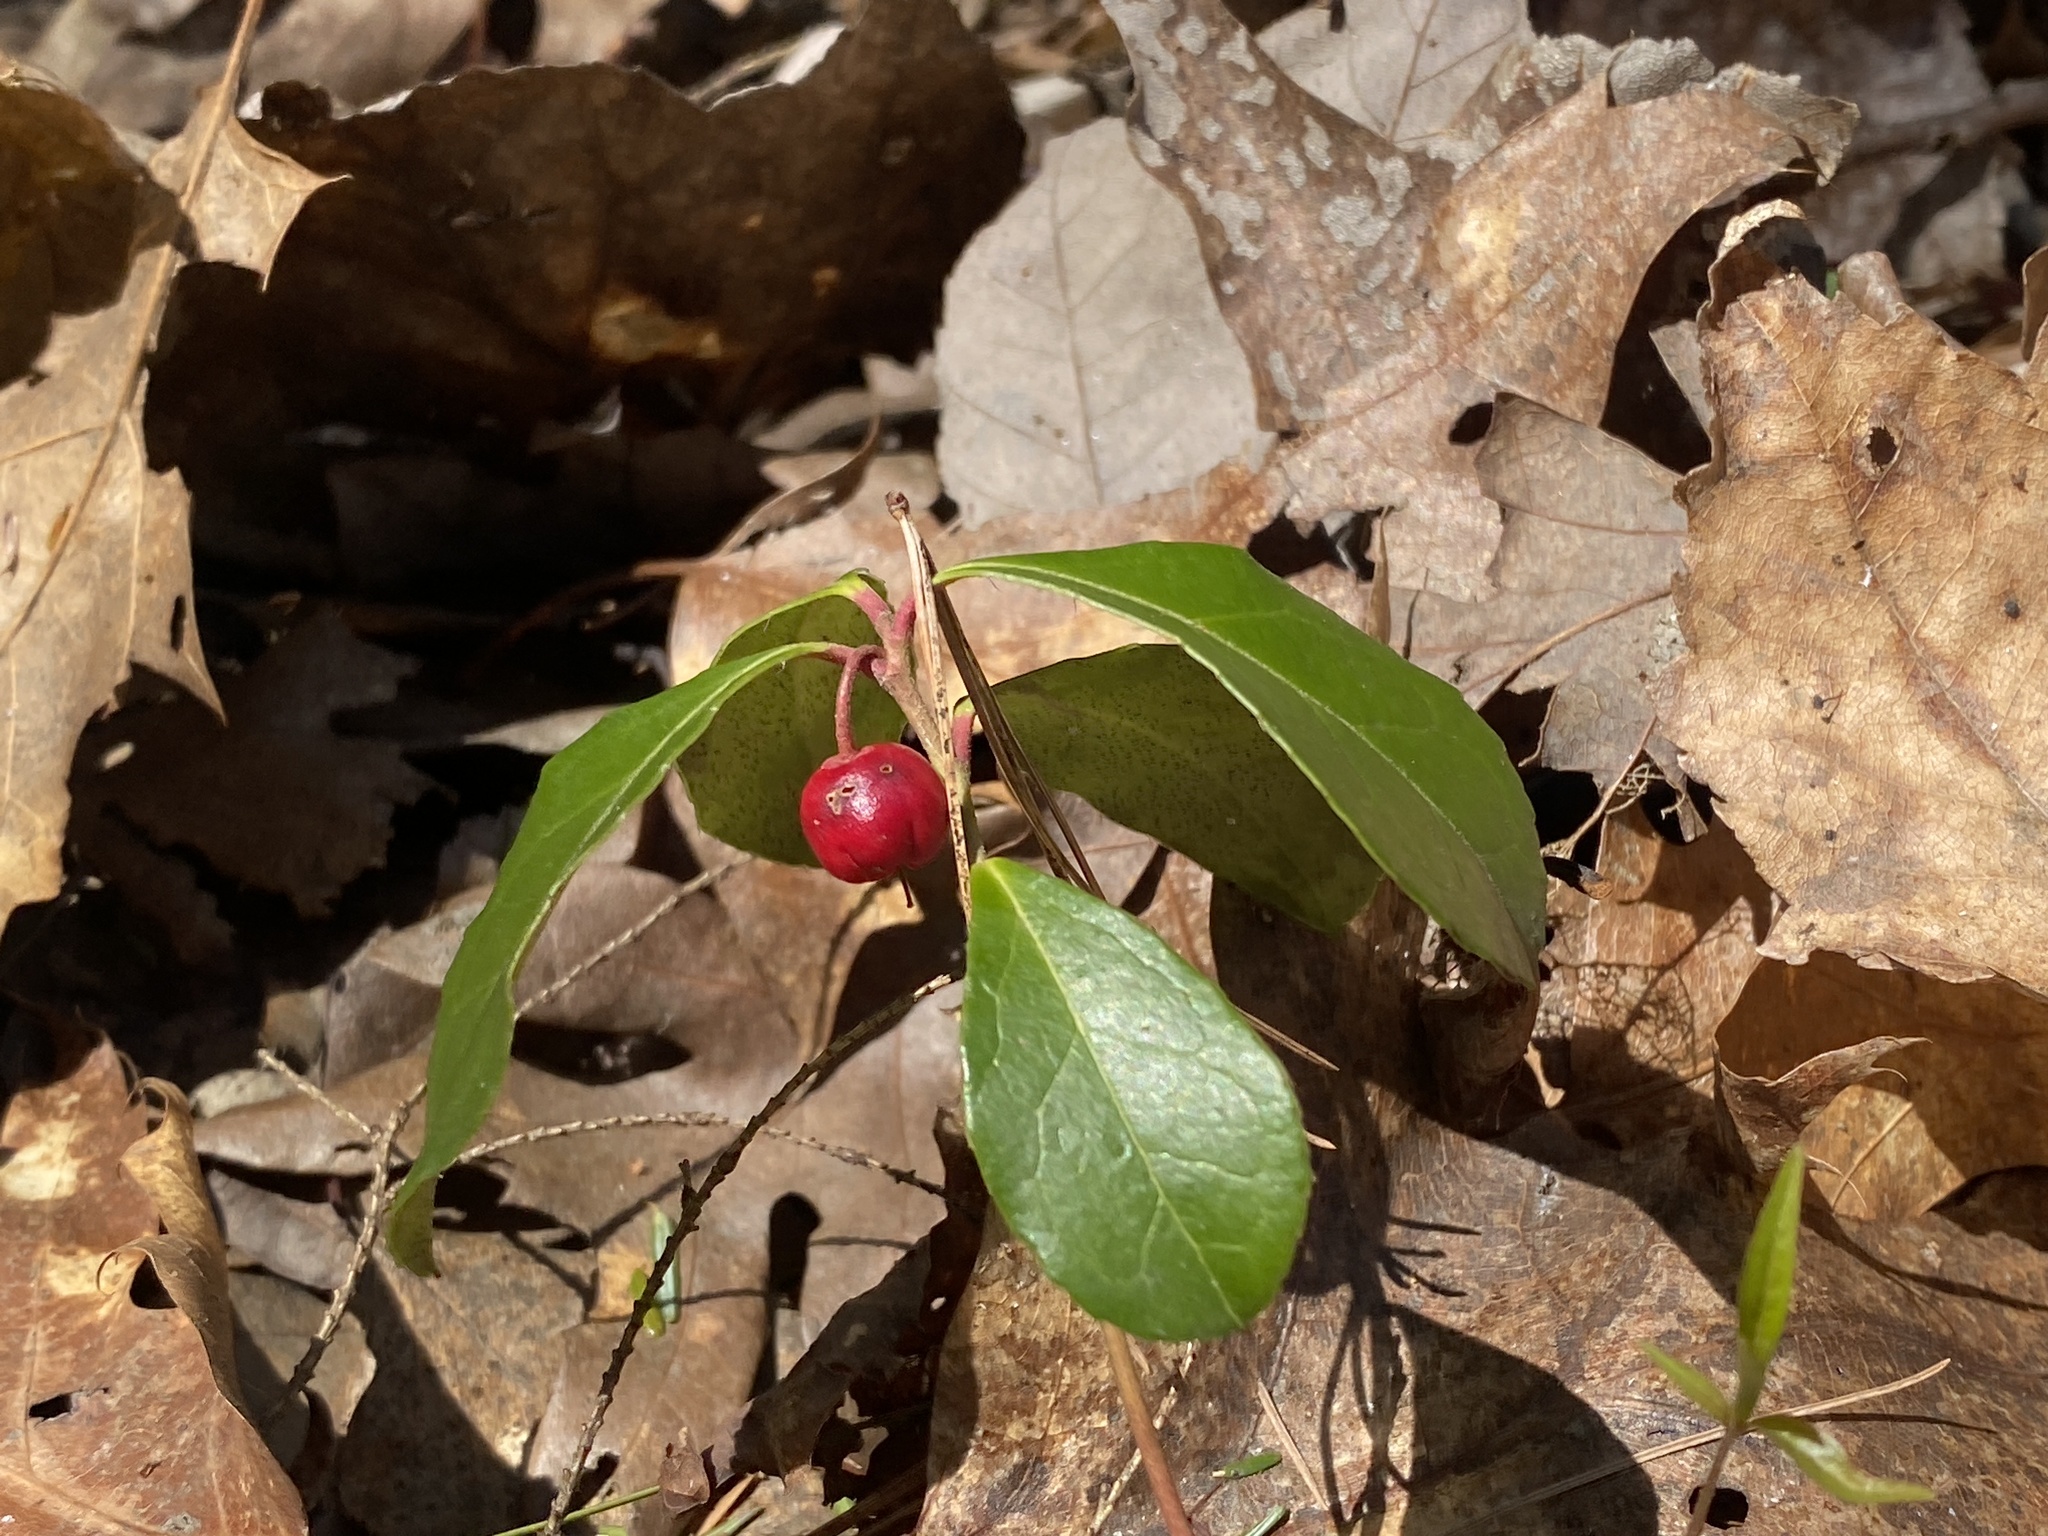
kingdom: Plantae
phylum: Tracheophyta
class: Magnoliopsida
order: Ericales
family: Ericaceae
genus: Gaultheria
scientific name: Gaultheria procumbens
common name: Checkerberry
